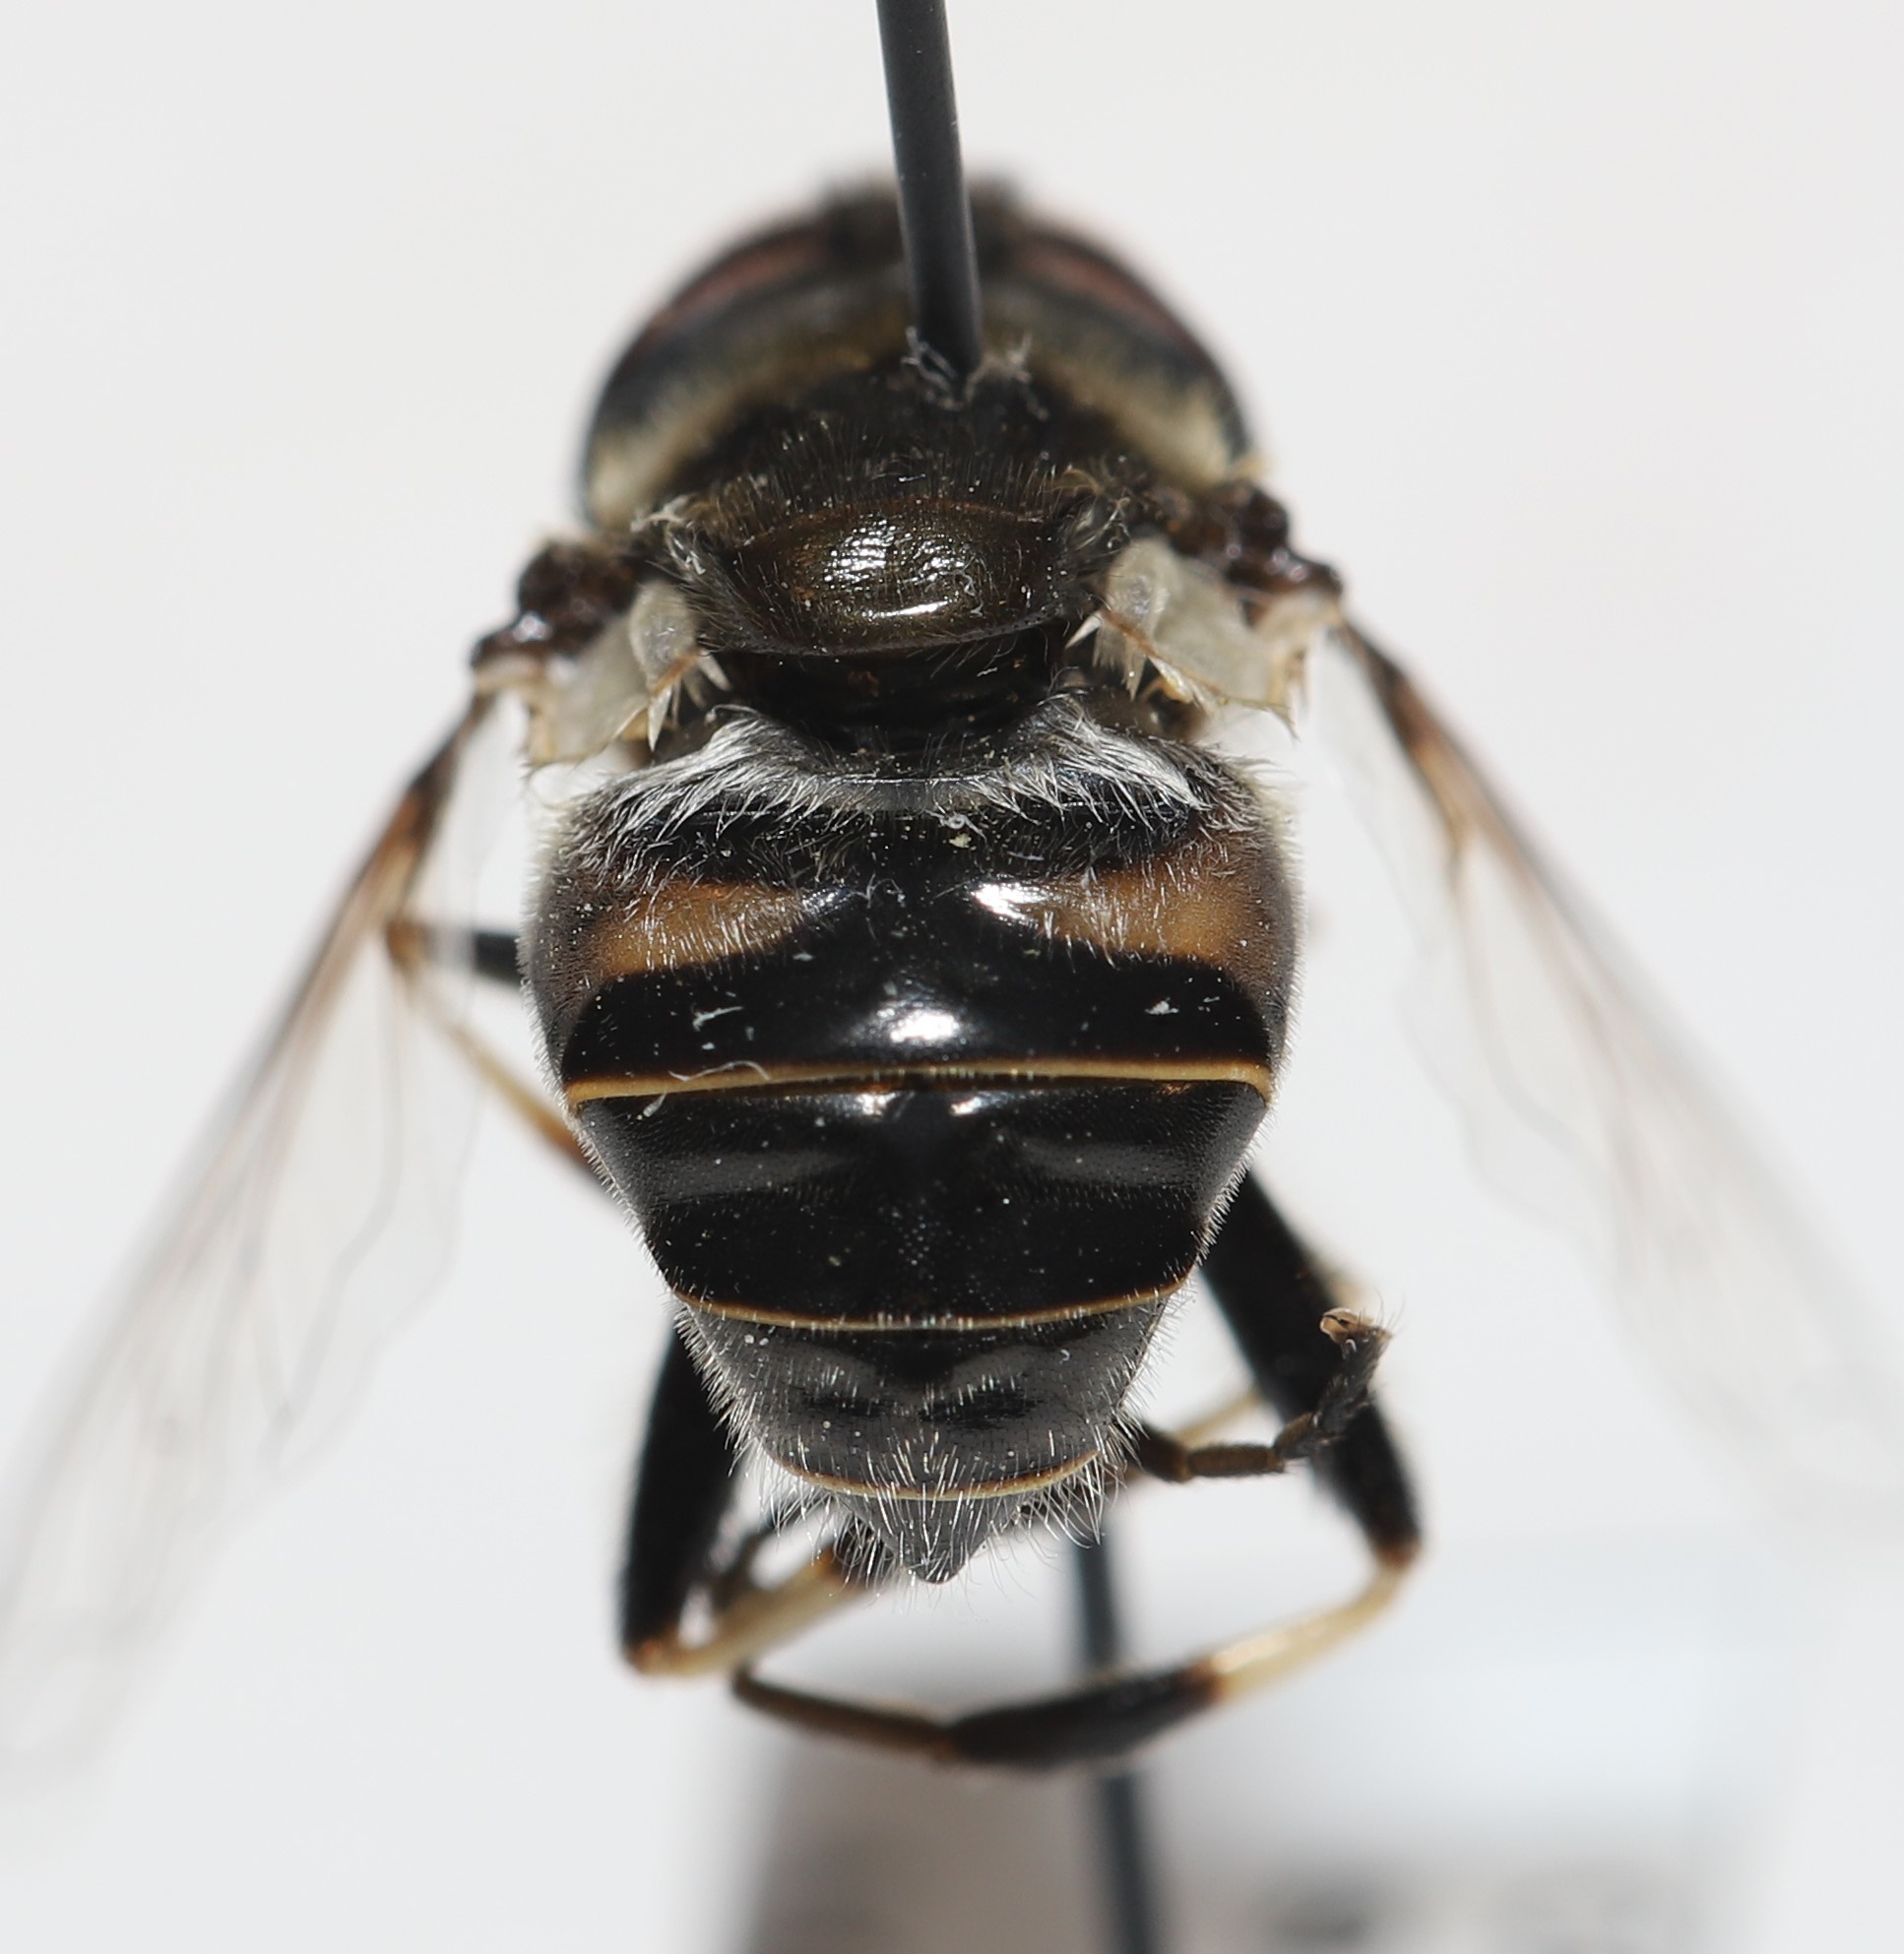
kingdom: Animalia
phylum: Arthropoda
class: Insecta
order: Diptera
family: Syrphidae
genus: Eristalis
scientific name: Eristalis dimidiata
